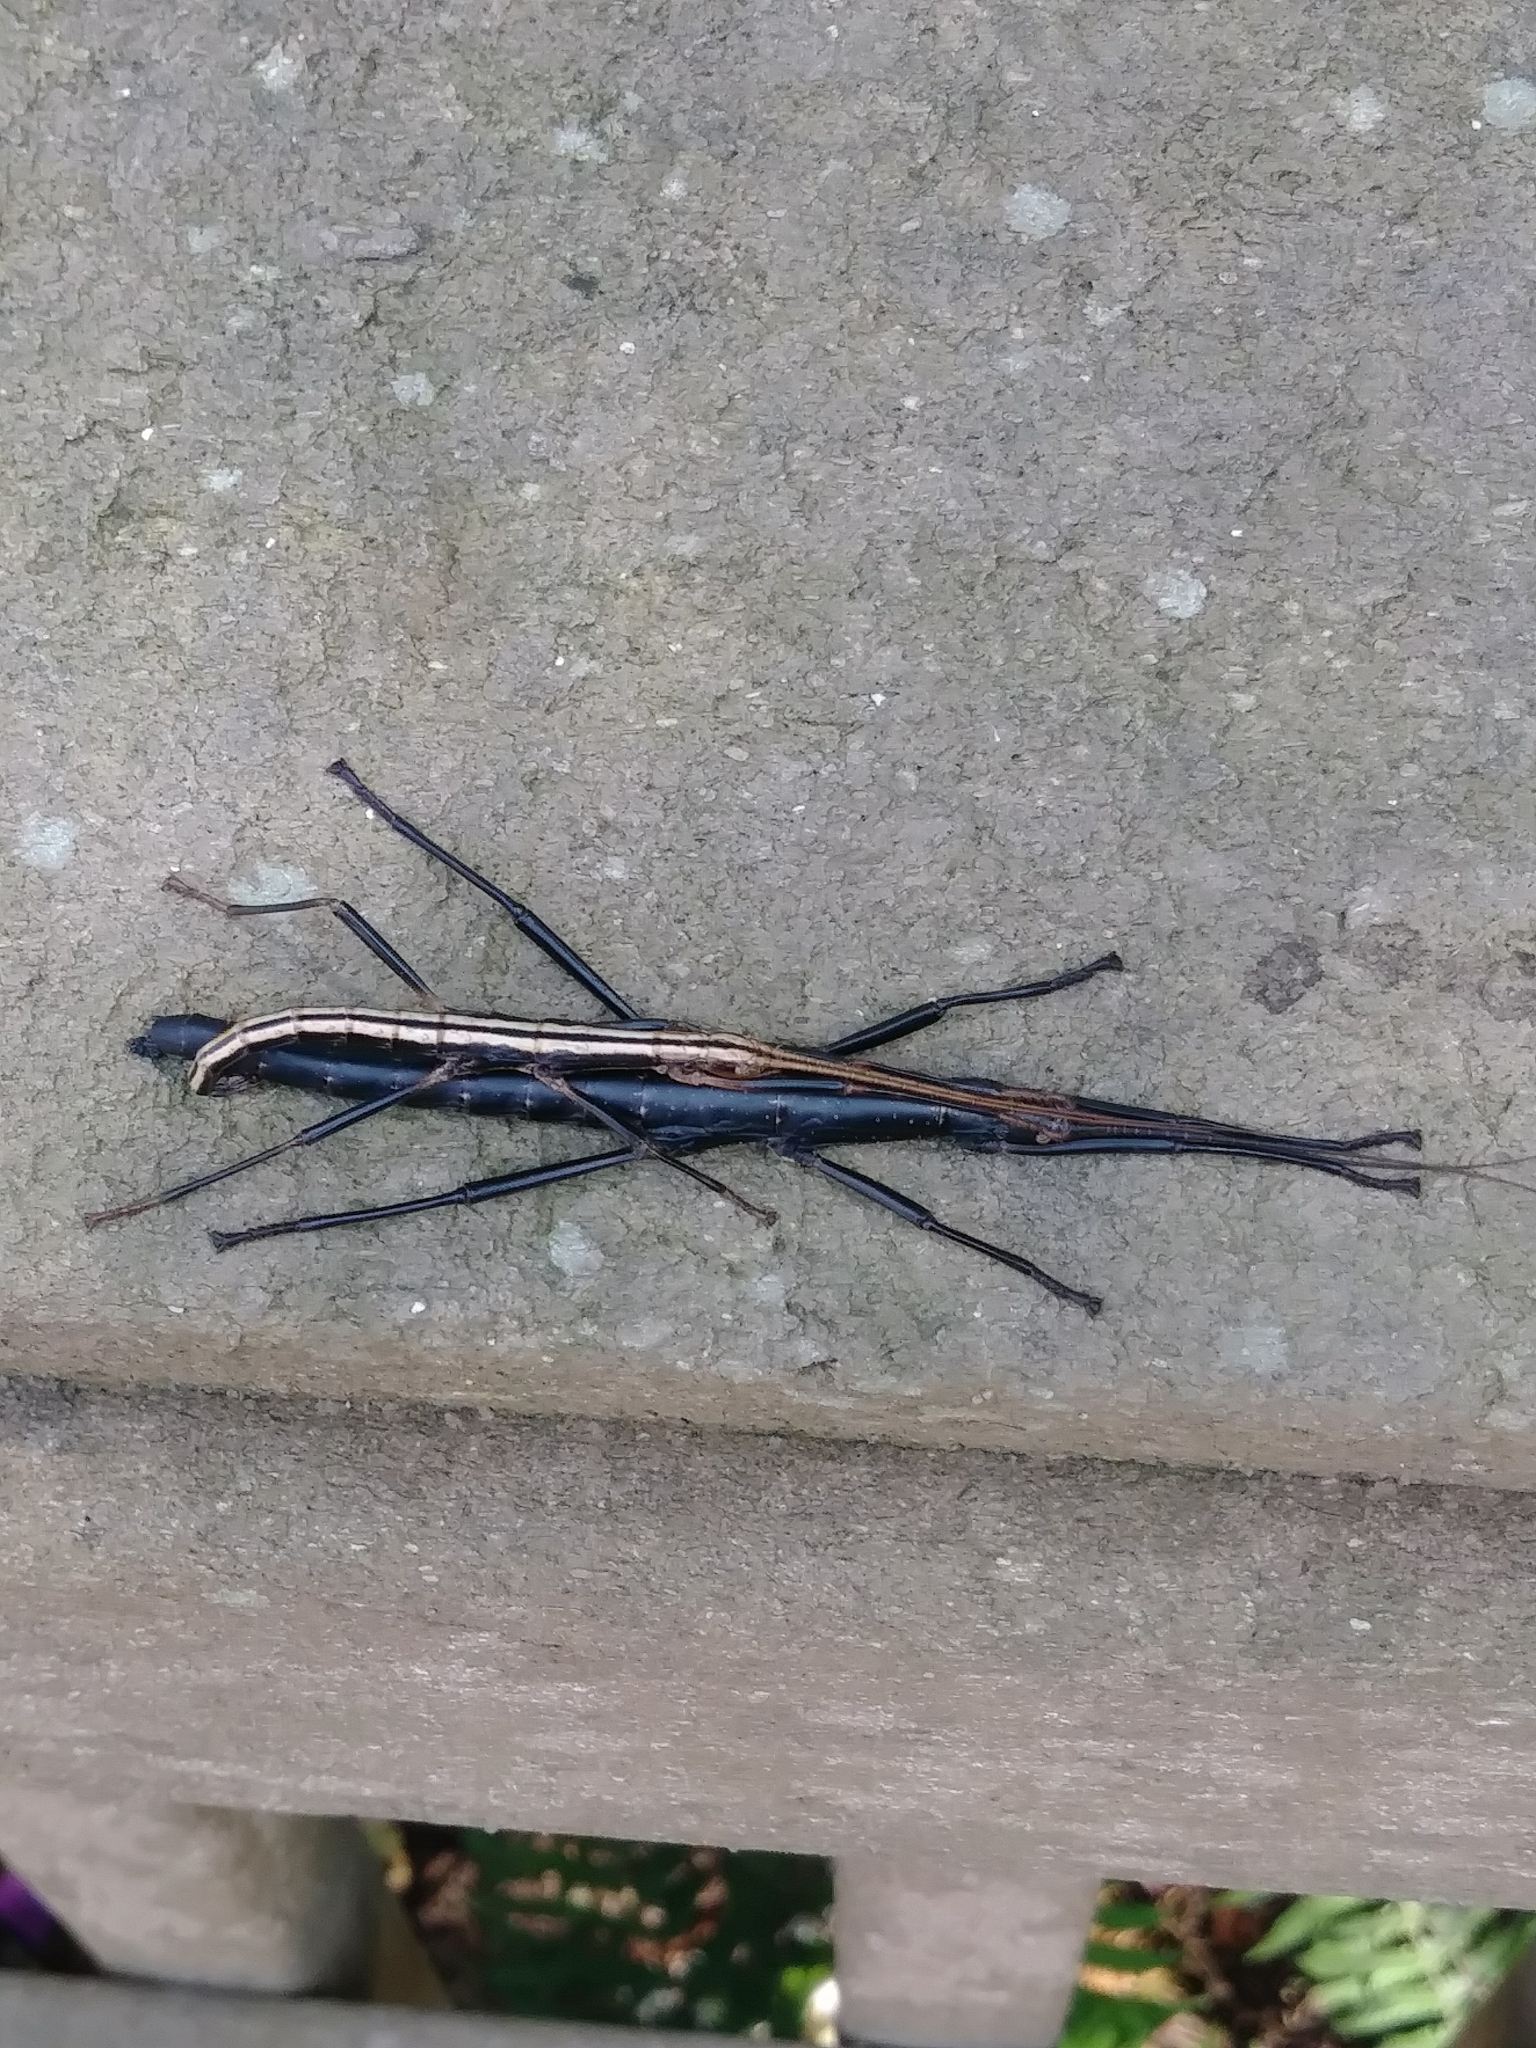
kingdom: Animalia
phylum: Arthropoda
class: Insecta
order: Phasmida
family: Pseudophasmatidae
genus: Anisomorpha
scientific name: Anisomorpha buprestoides
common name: Florida stick insect
